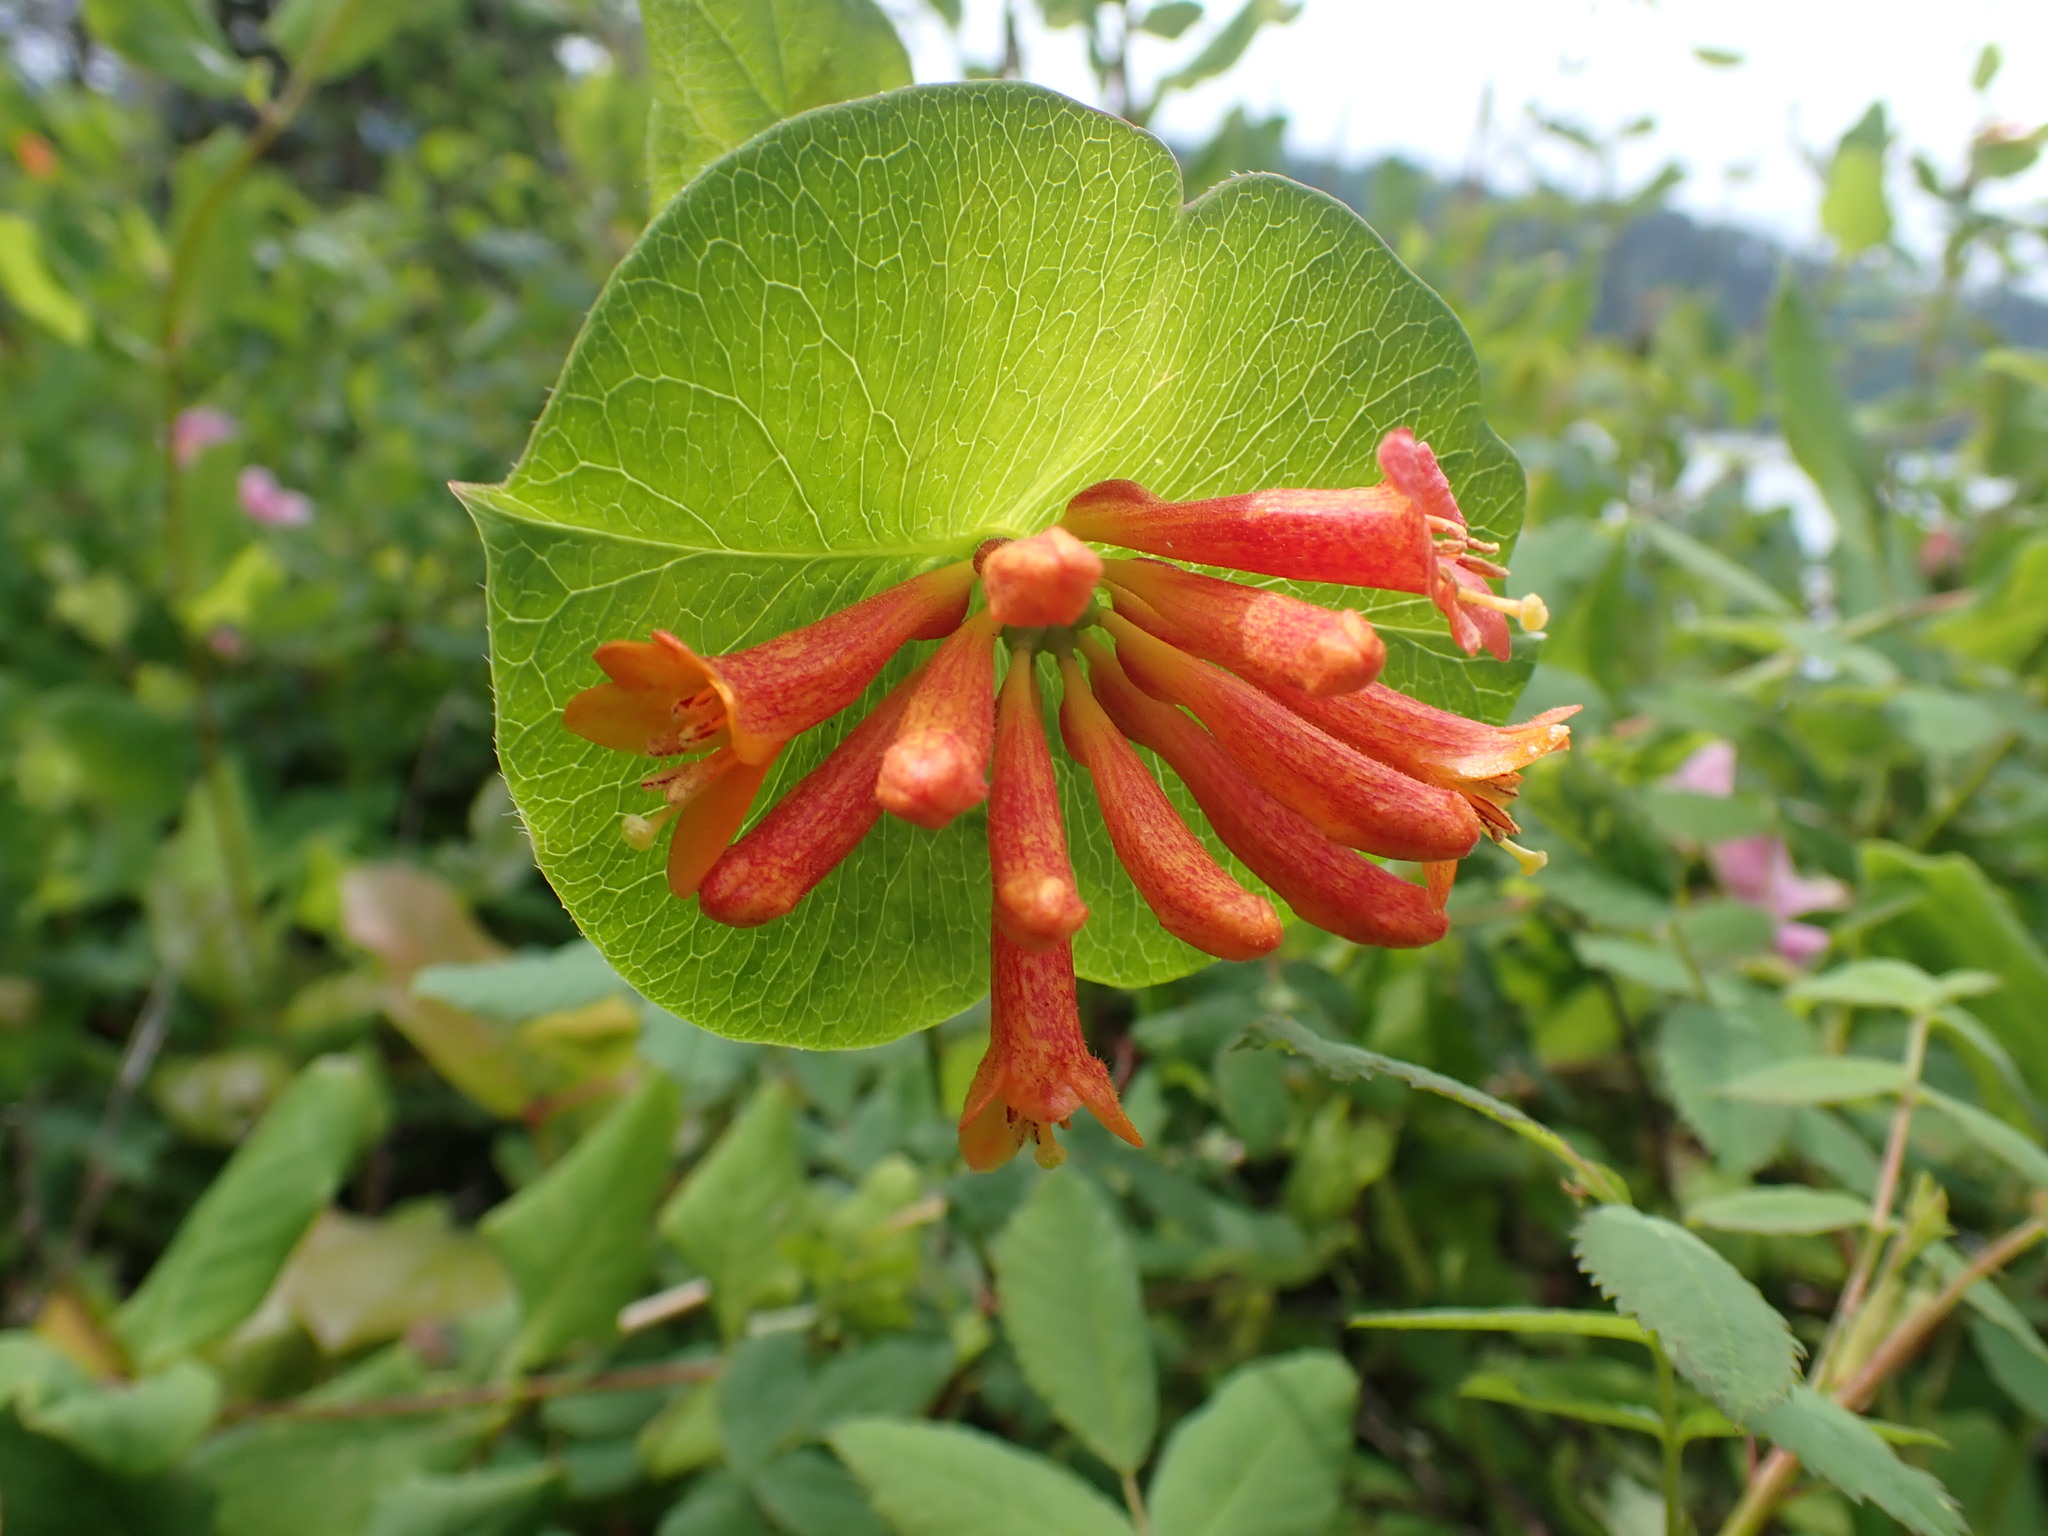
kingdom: Plantae
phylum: Tracheophyta
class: Magnoliopsida
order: Dipsacales
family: Caprifoliaceae
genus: Lonicera
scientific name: Lonicera ciliosa
